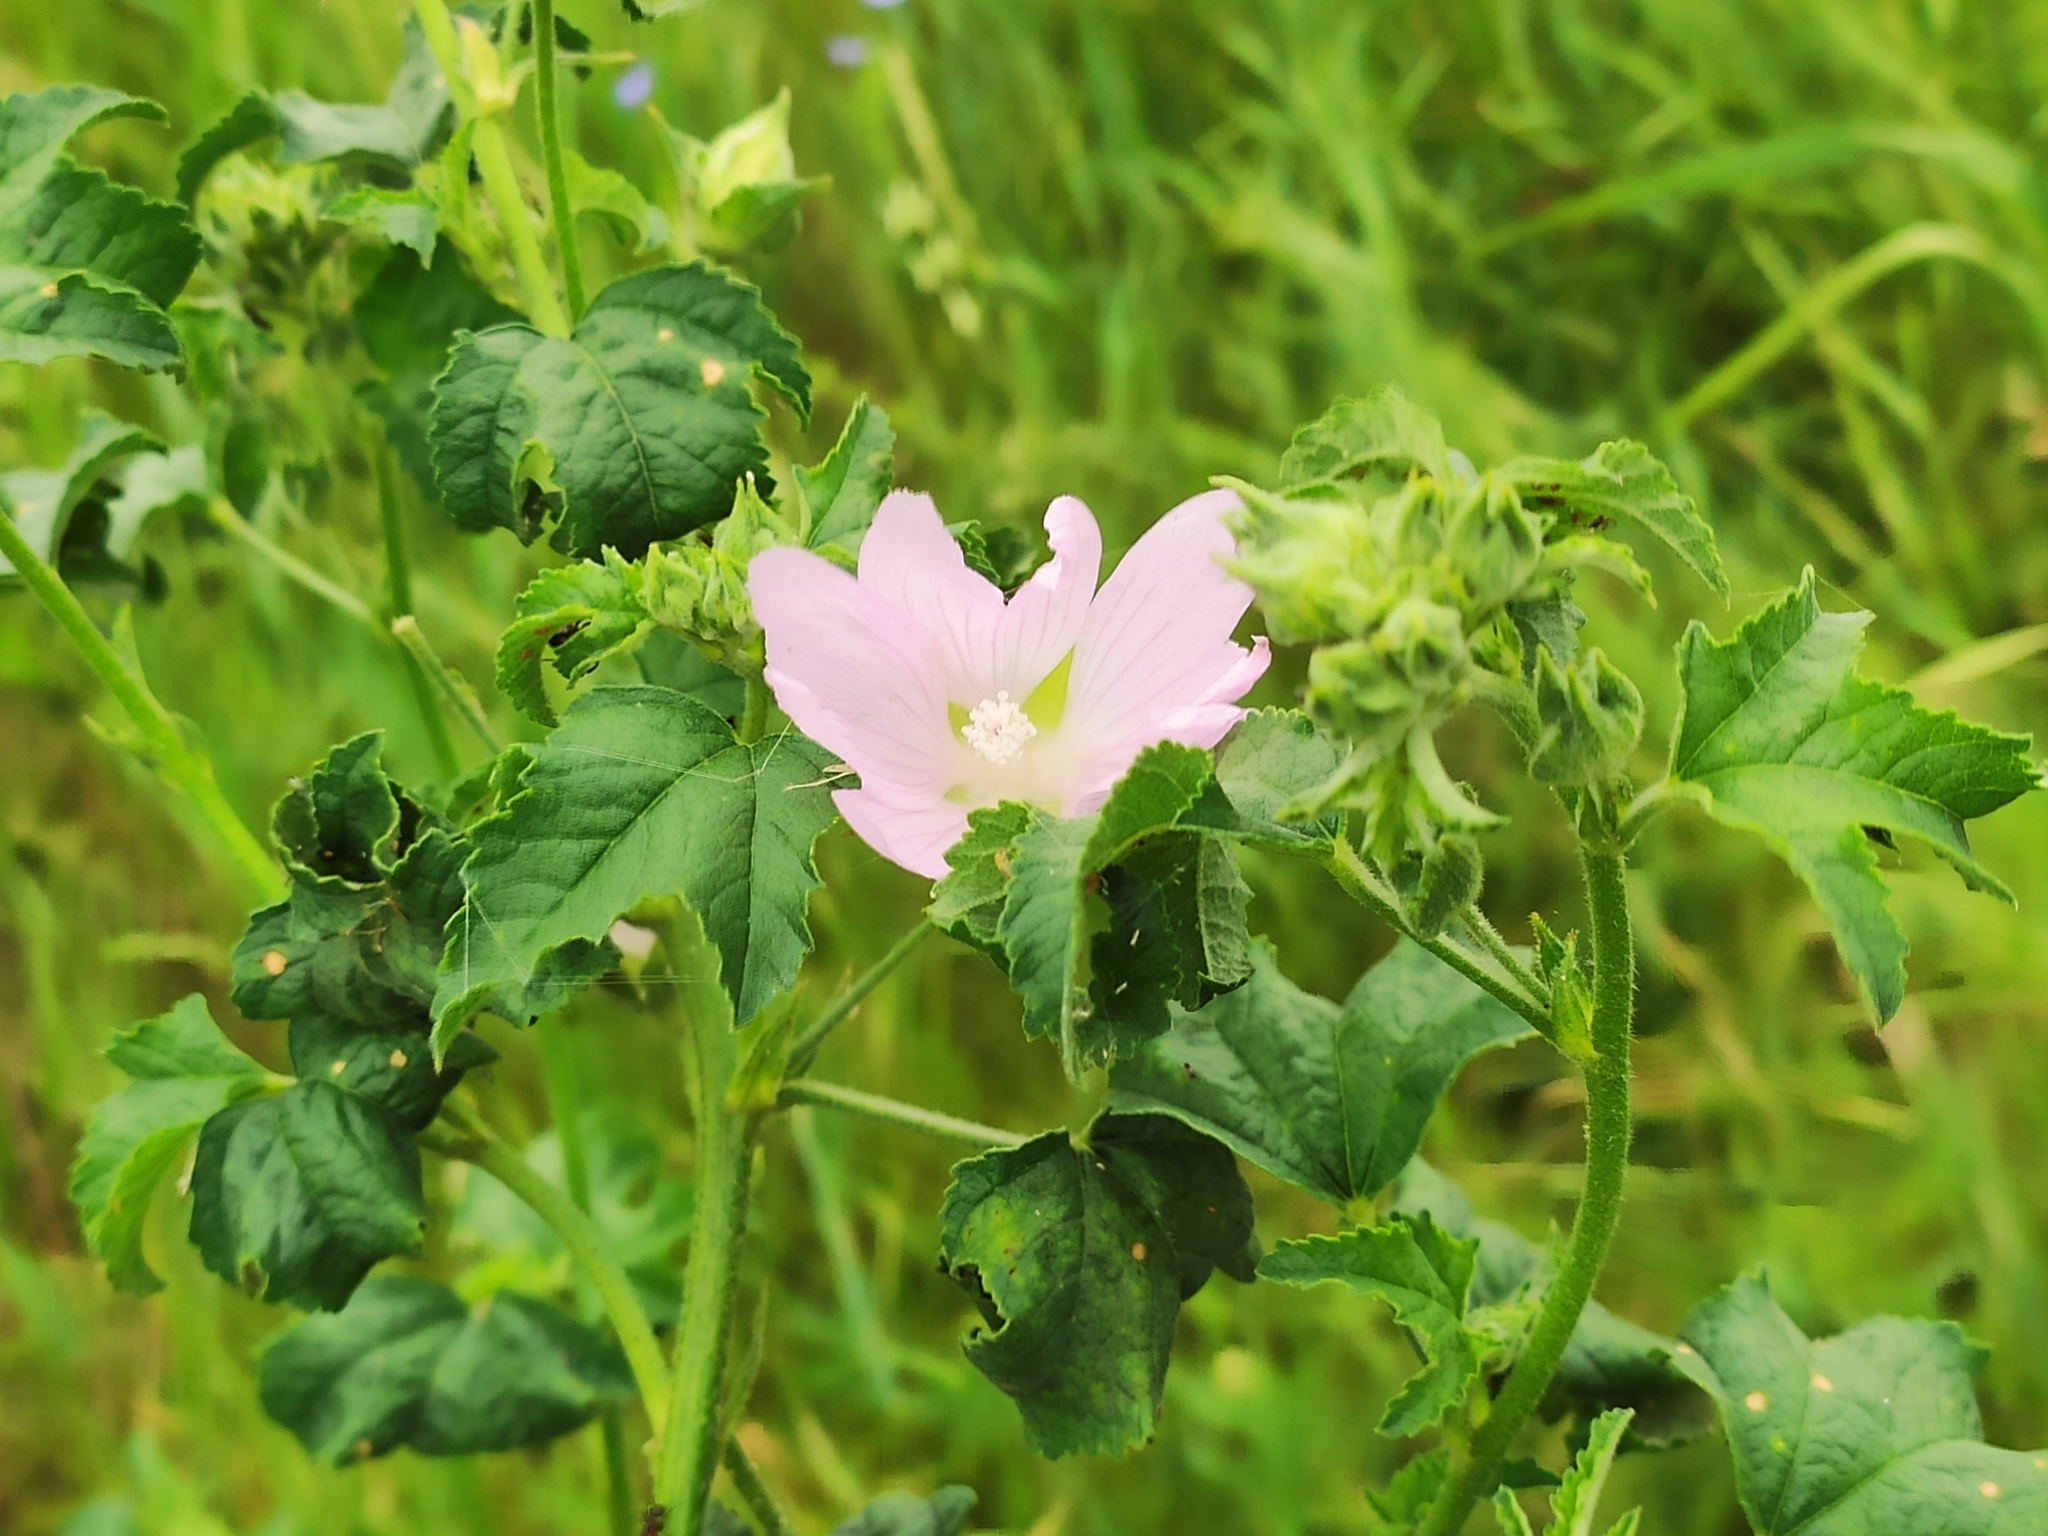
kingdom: Plantae
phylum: Tracheophyta
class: Magnoliopsida
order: Malvales
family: Malvaceae
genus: Malva
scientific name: Malva thuringiaca
